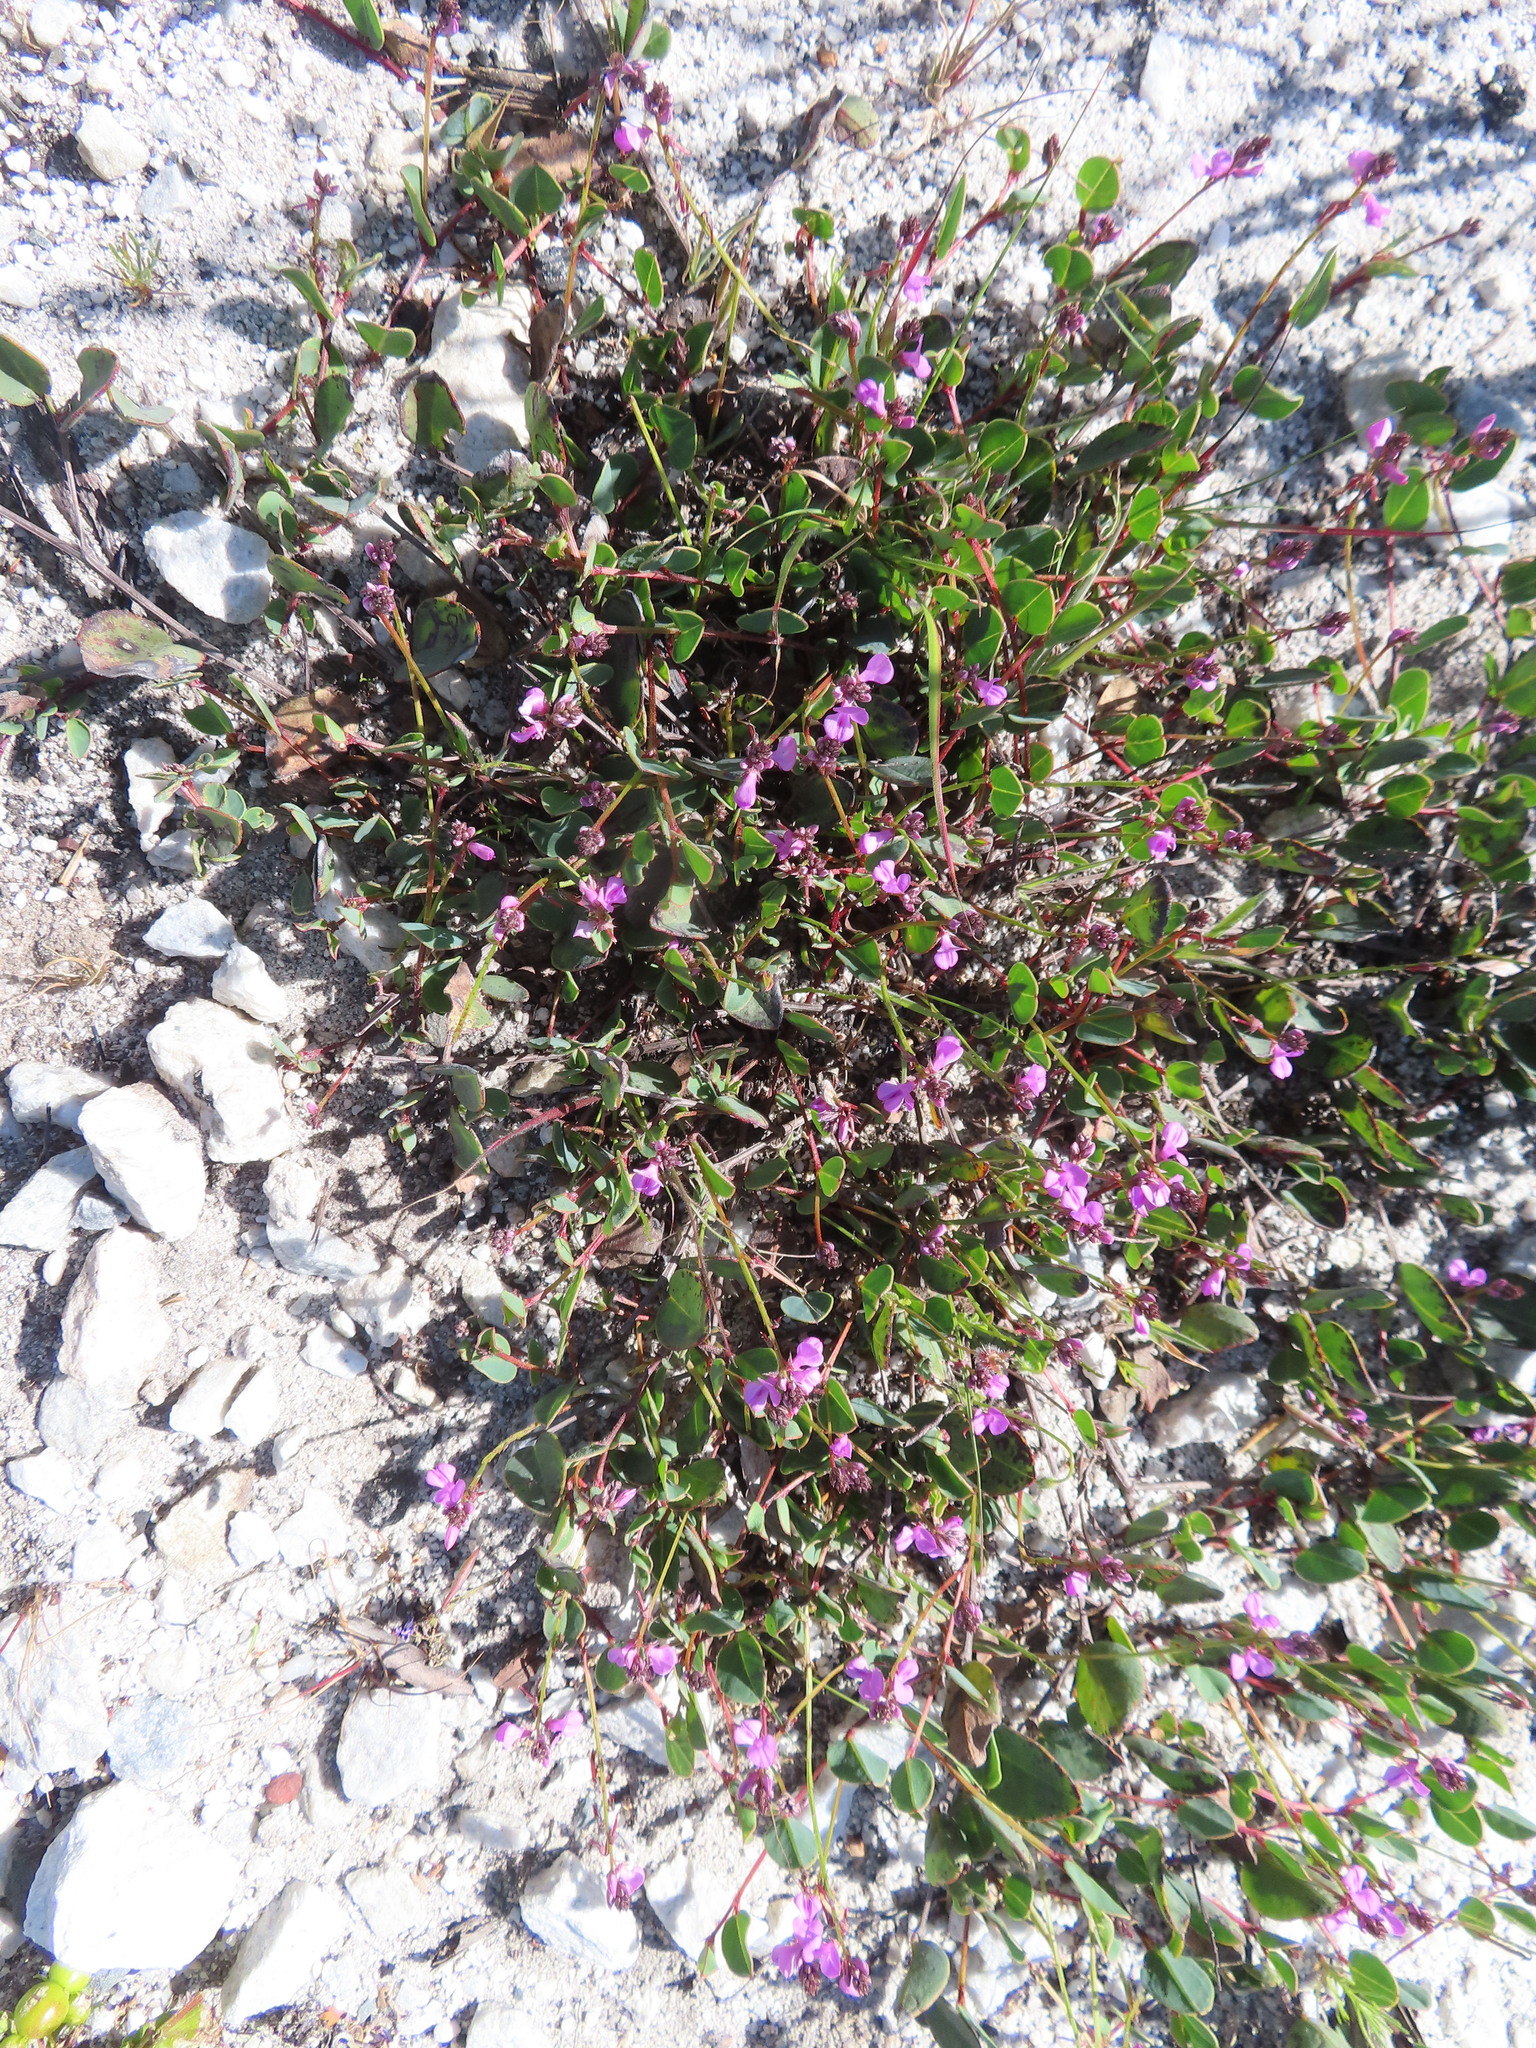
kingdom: Plantae
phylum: Tracheophyta
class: Magnoliopsida
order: Fabales
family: Fabaceae
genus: Indigofera
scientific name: Indigofera ovata
